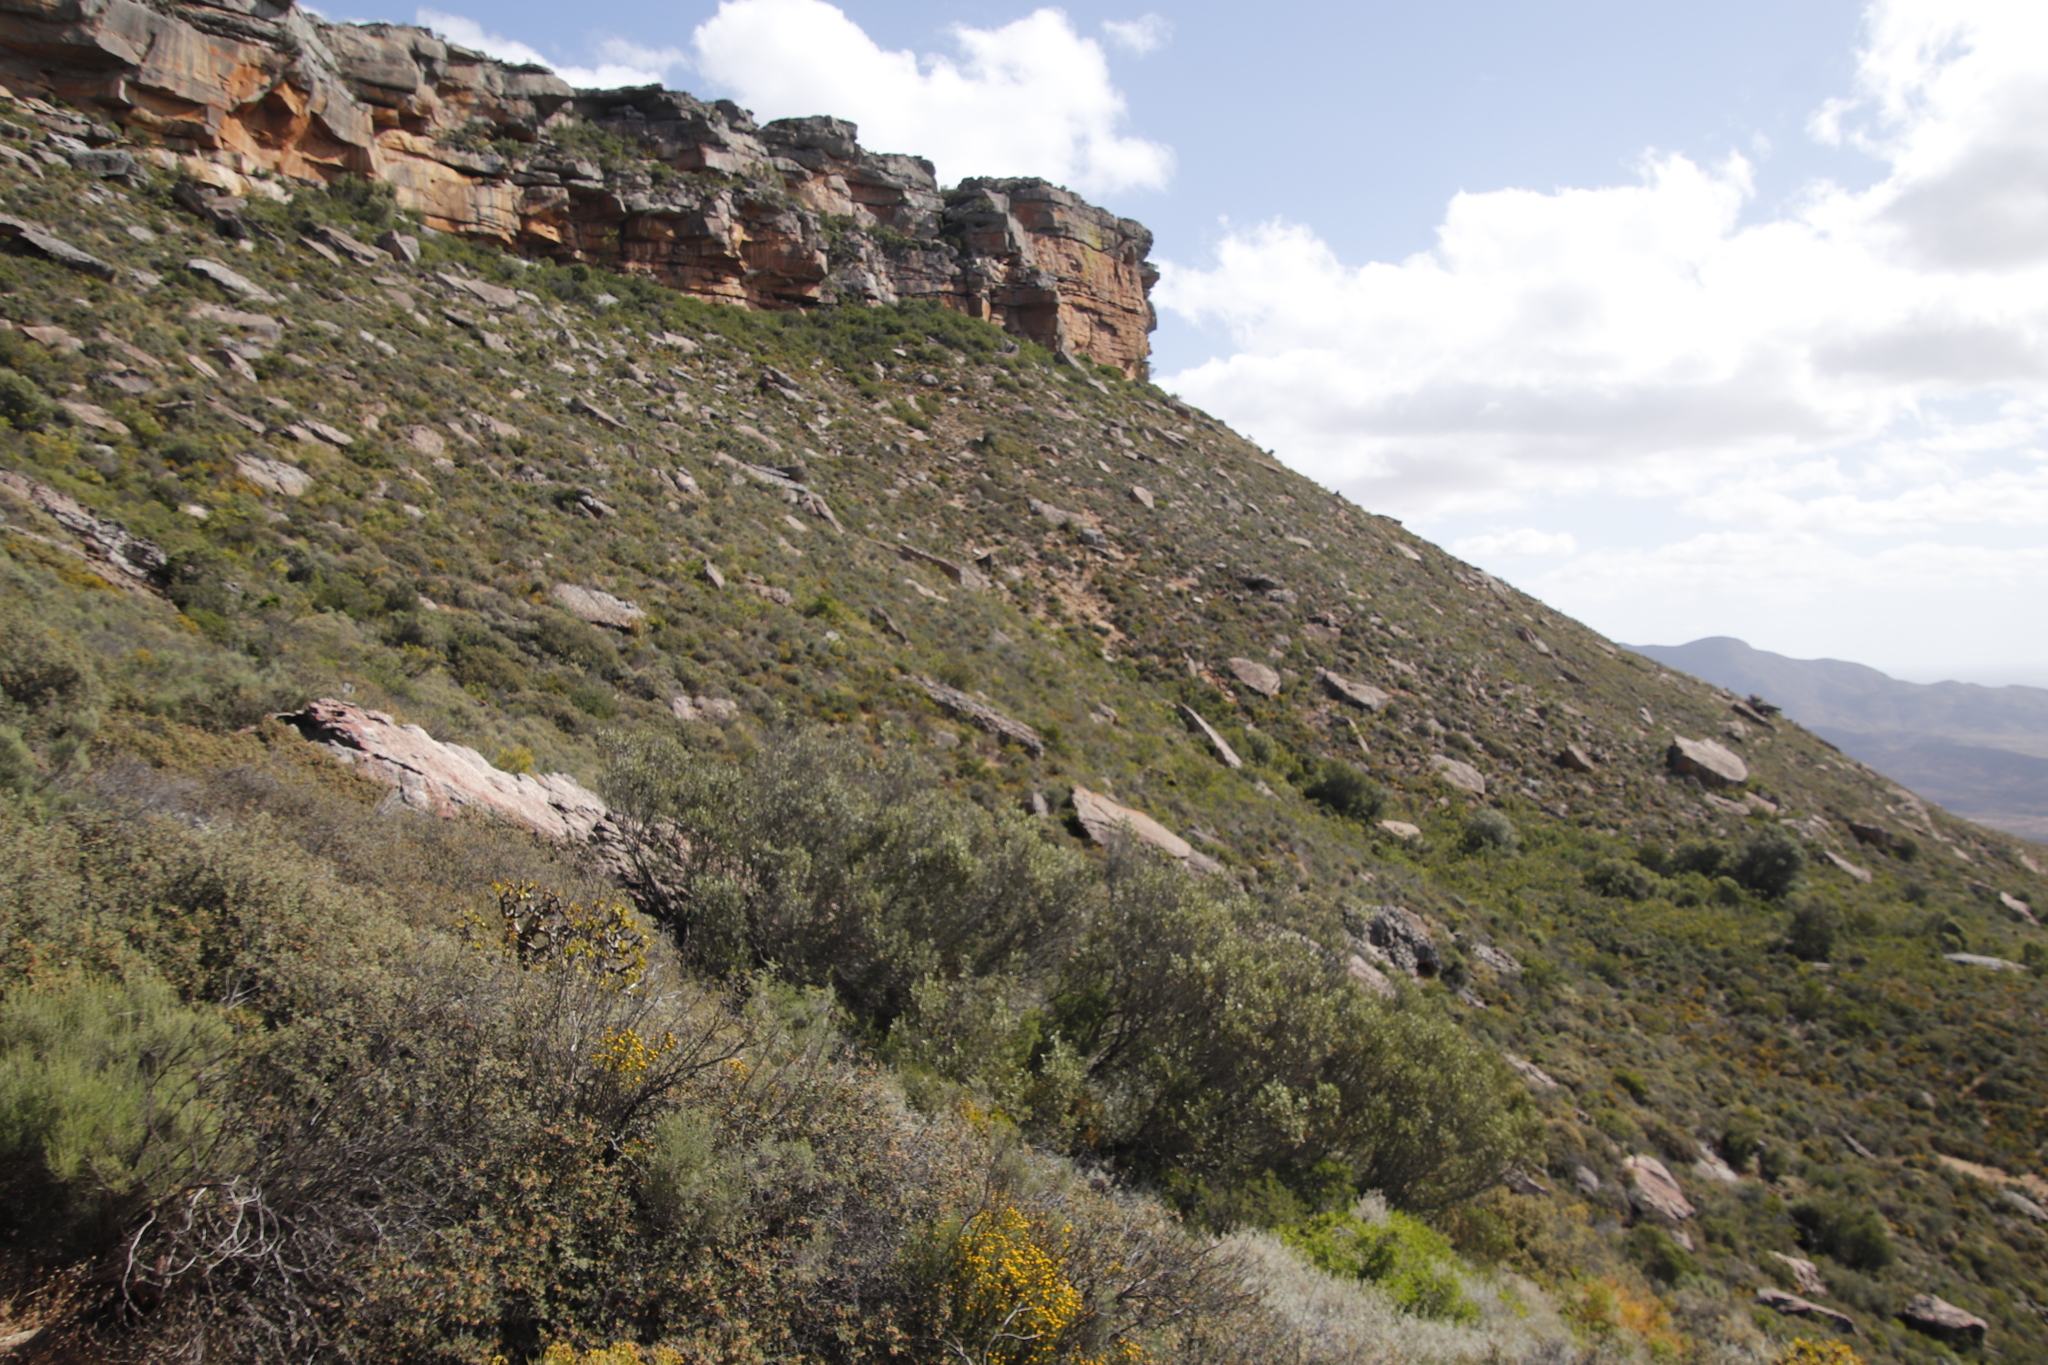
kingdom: Plantae
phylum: Tracheophyta
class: Magnoliopsida
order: Lamiales
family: Oleaceae
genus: Olea
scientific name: Olea europaea
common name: Olive
